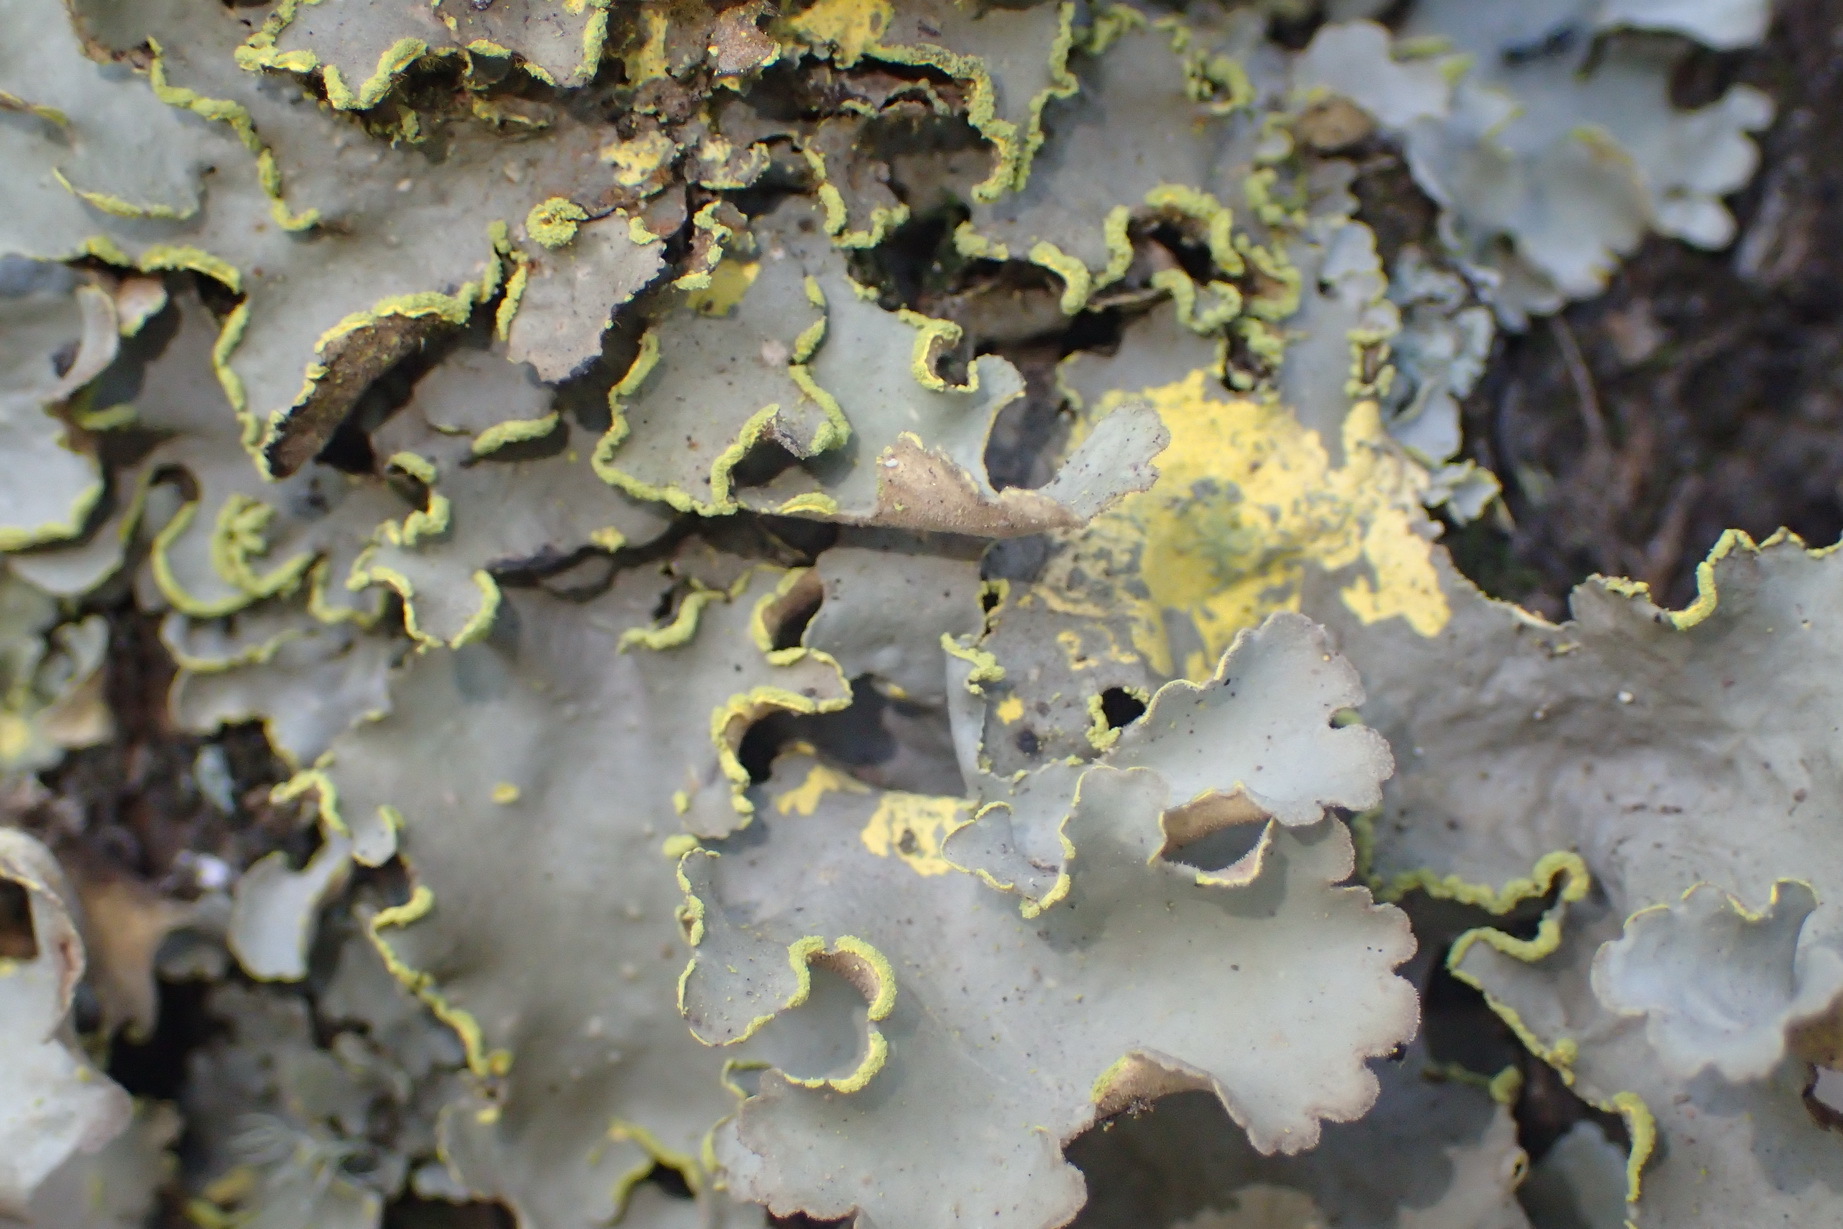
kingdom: Fungi
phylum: Ascomycota
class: Lecanoromycetes
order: Peltigerales
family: Lobariaceae
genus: Pseudocyphellaria
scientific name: Pseudocyphellaria aurata
